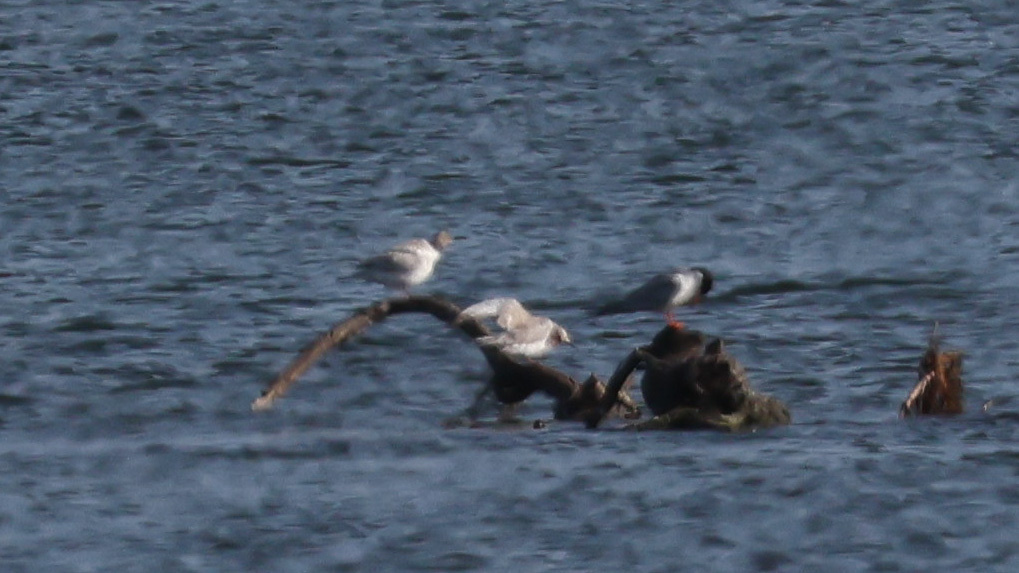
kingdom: Animalia
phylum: Chordata
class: Aves
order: Charadriiformes
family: Laridae
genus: Sterna
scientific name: Sterna forsteri
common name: Forster's tern
